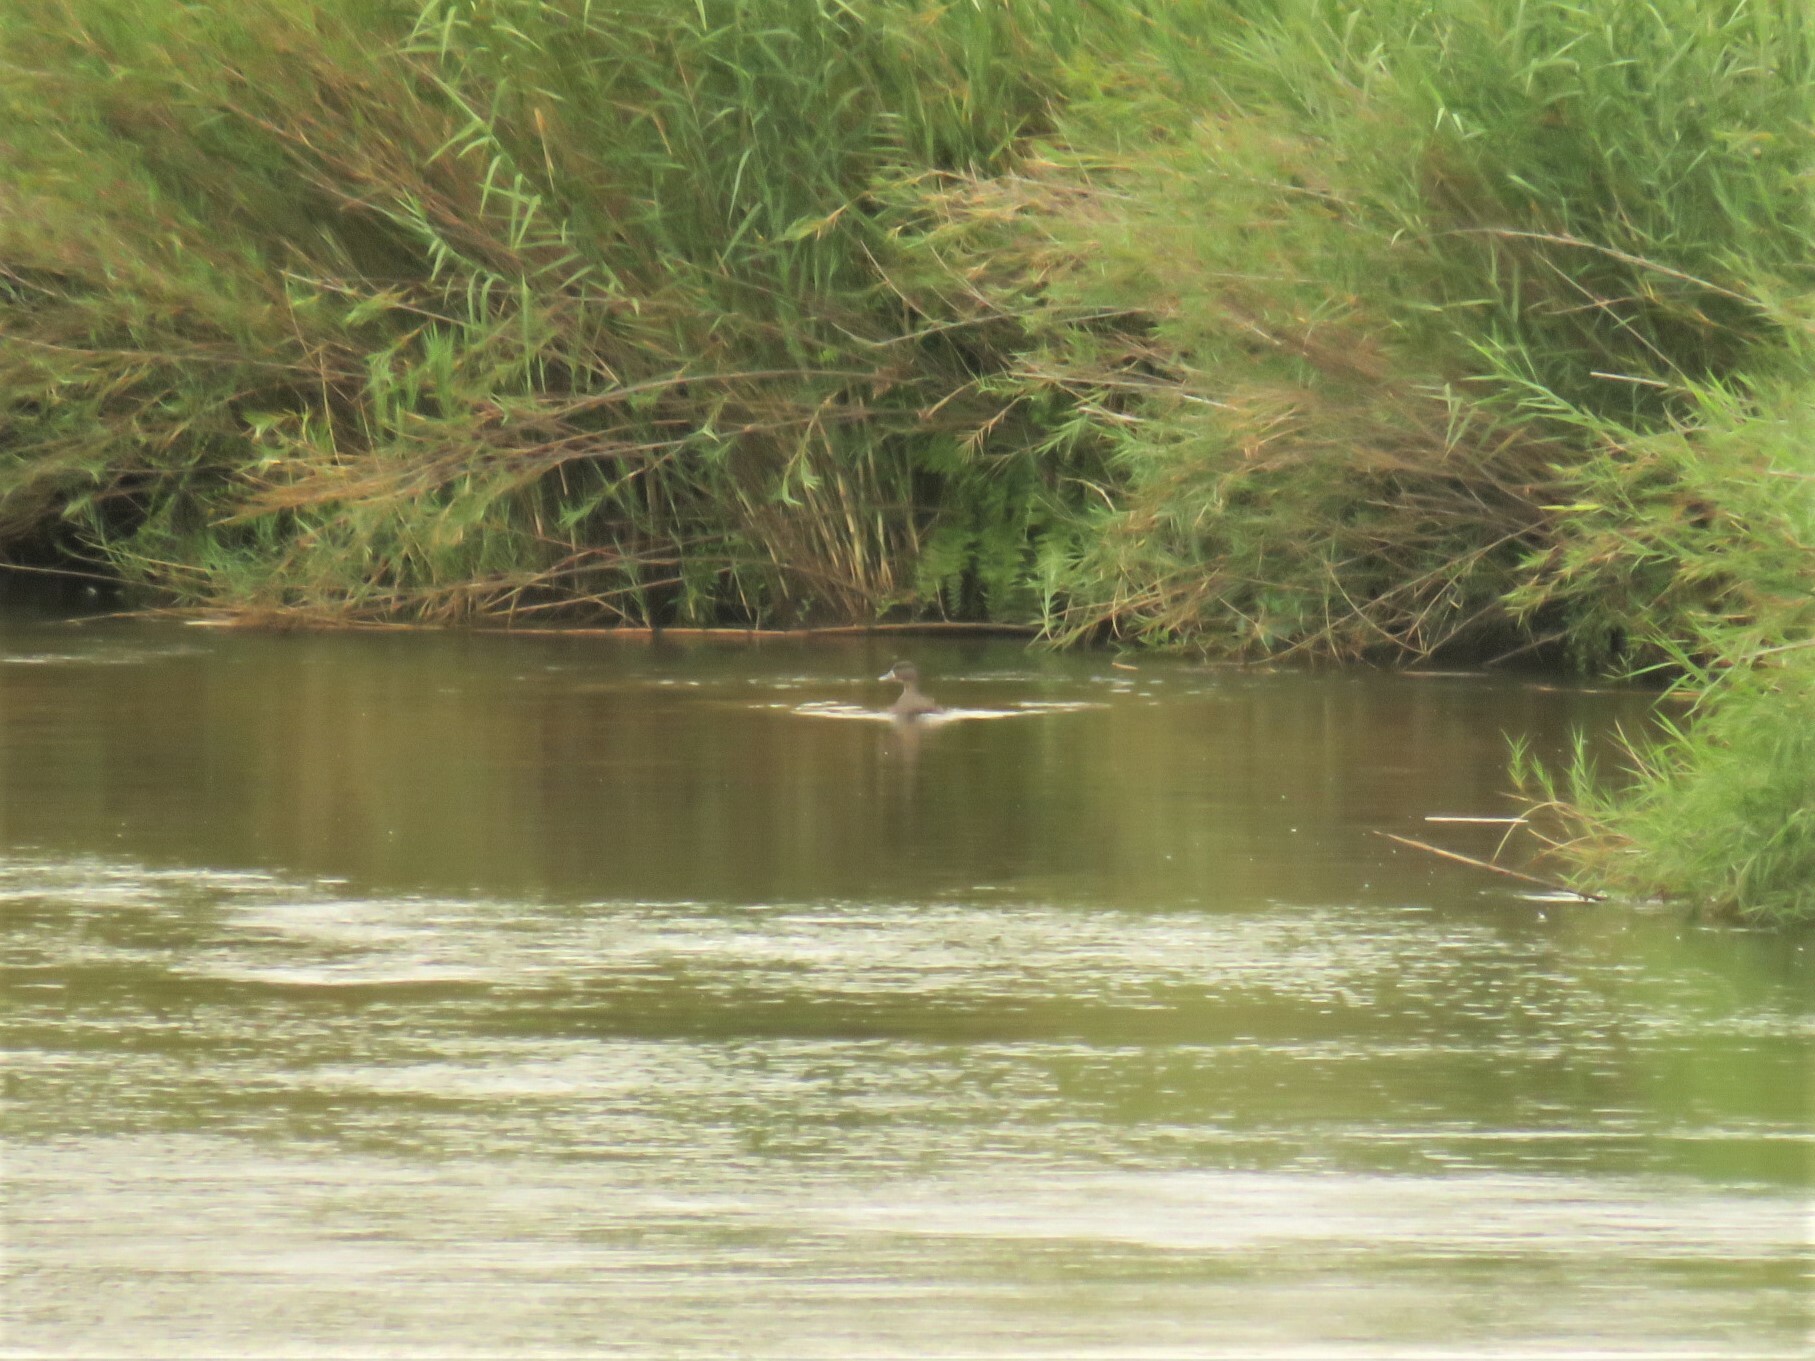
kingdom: Animalia
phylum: Chordata
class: Aves
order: Anseriformes
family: Anatidae
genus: Anas
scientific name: Anas sparsa
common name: African black duck
